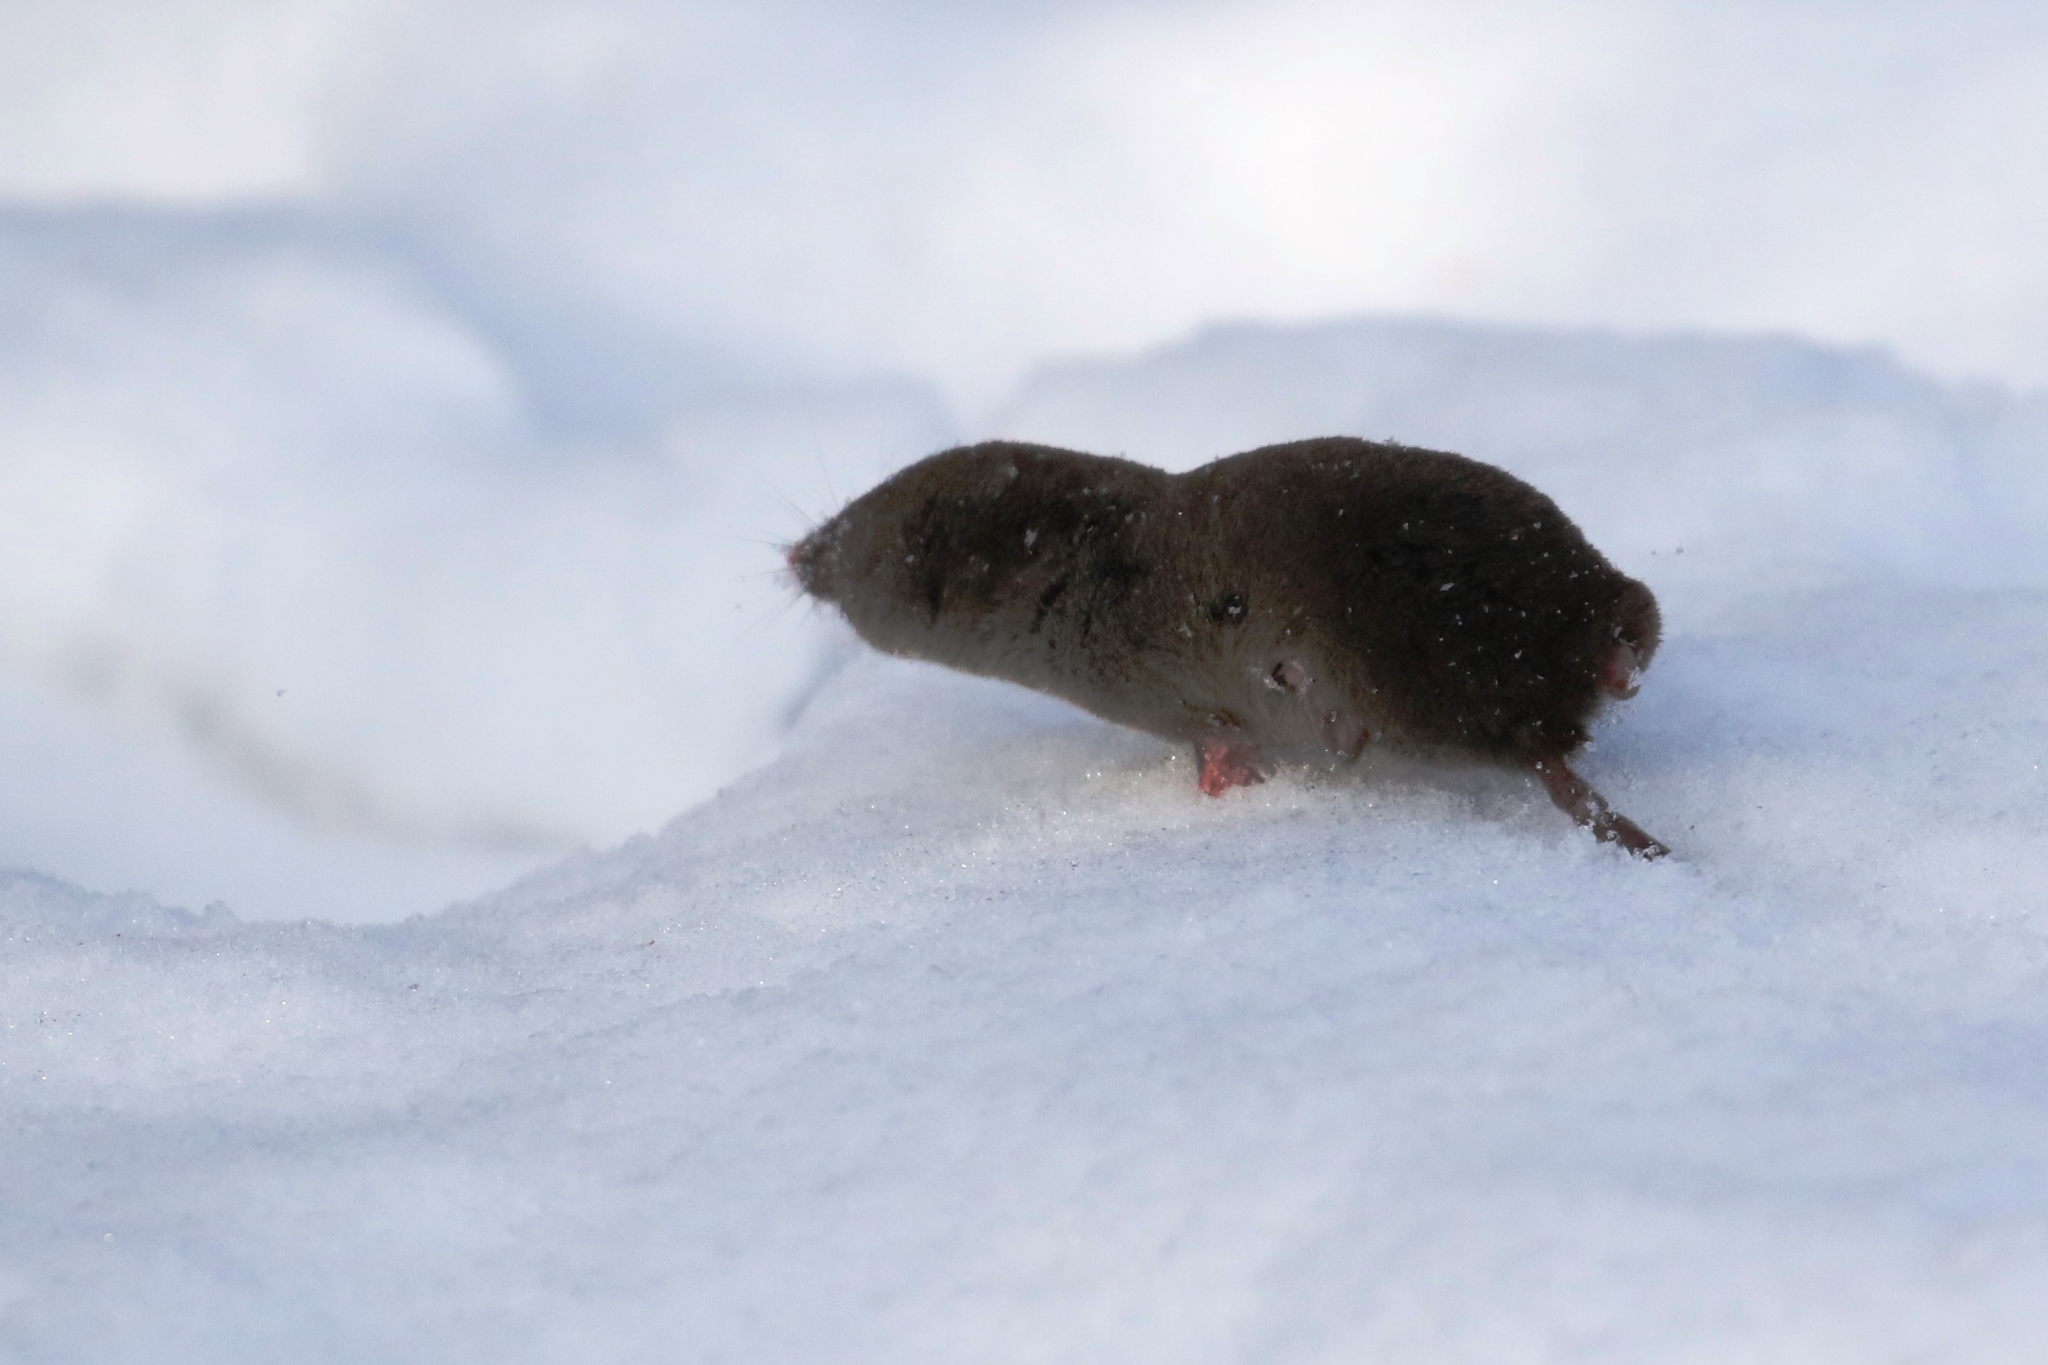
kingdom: Animalia
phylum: Chordata
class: Mammalia
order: Soricomorpha
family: Soricidae
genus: Blarina
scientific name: Blarina brevicauda
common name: Northern short-tailed shrew
